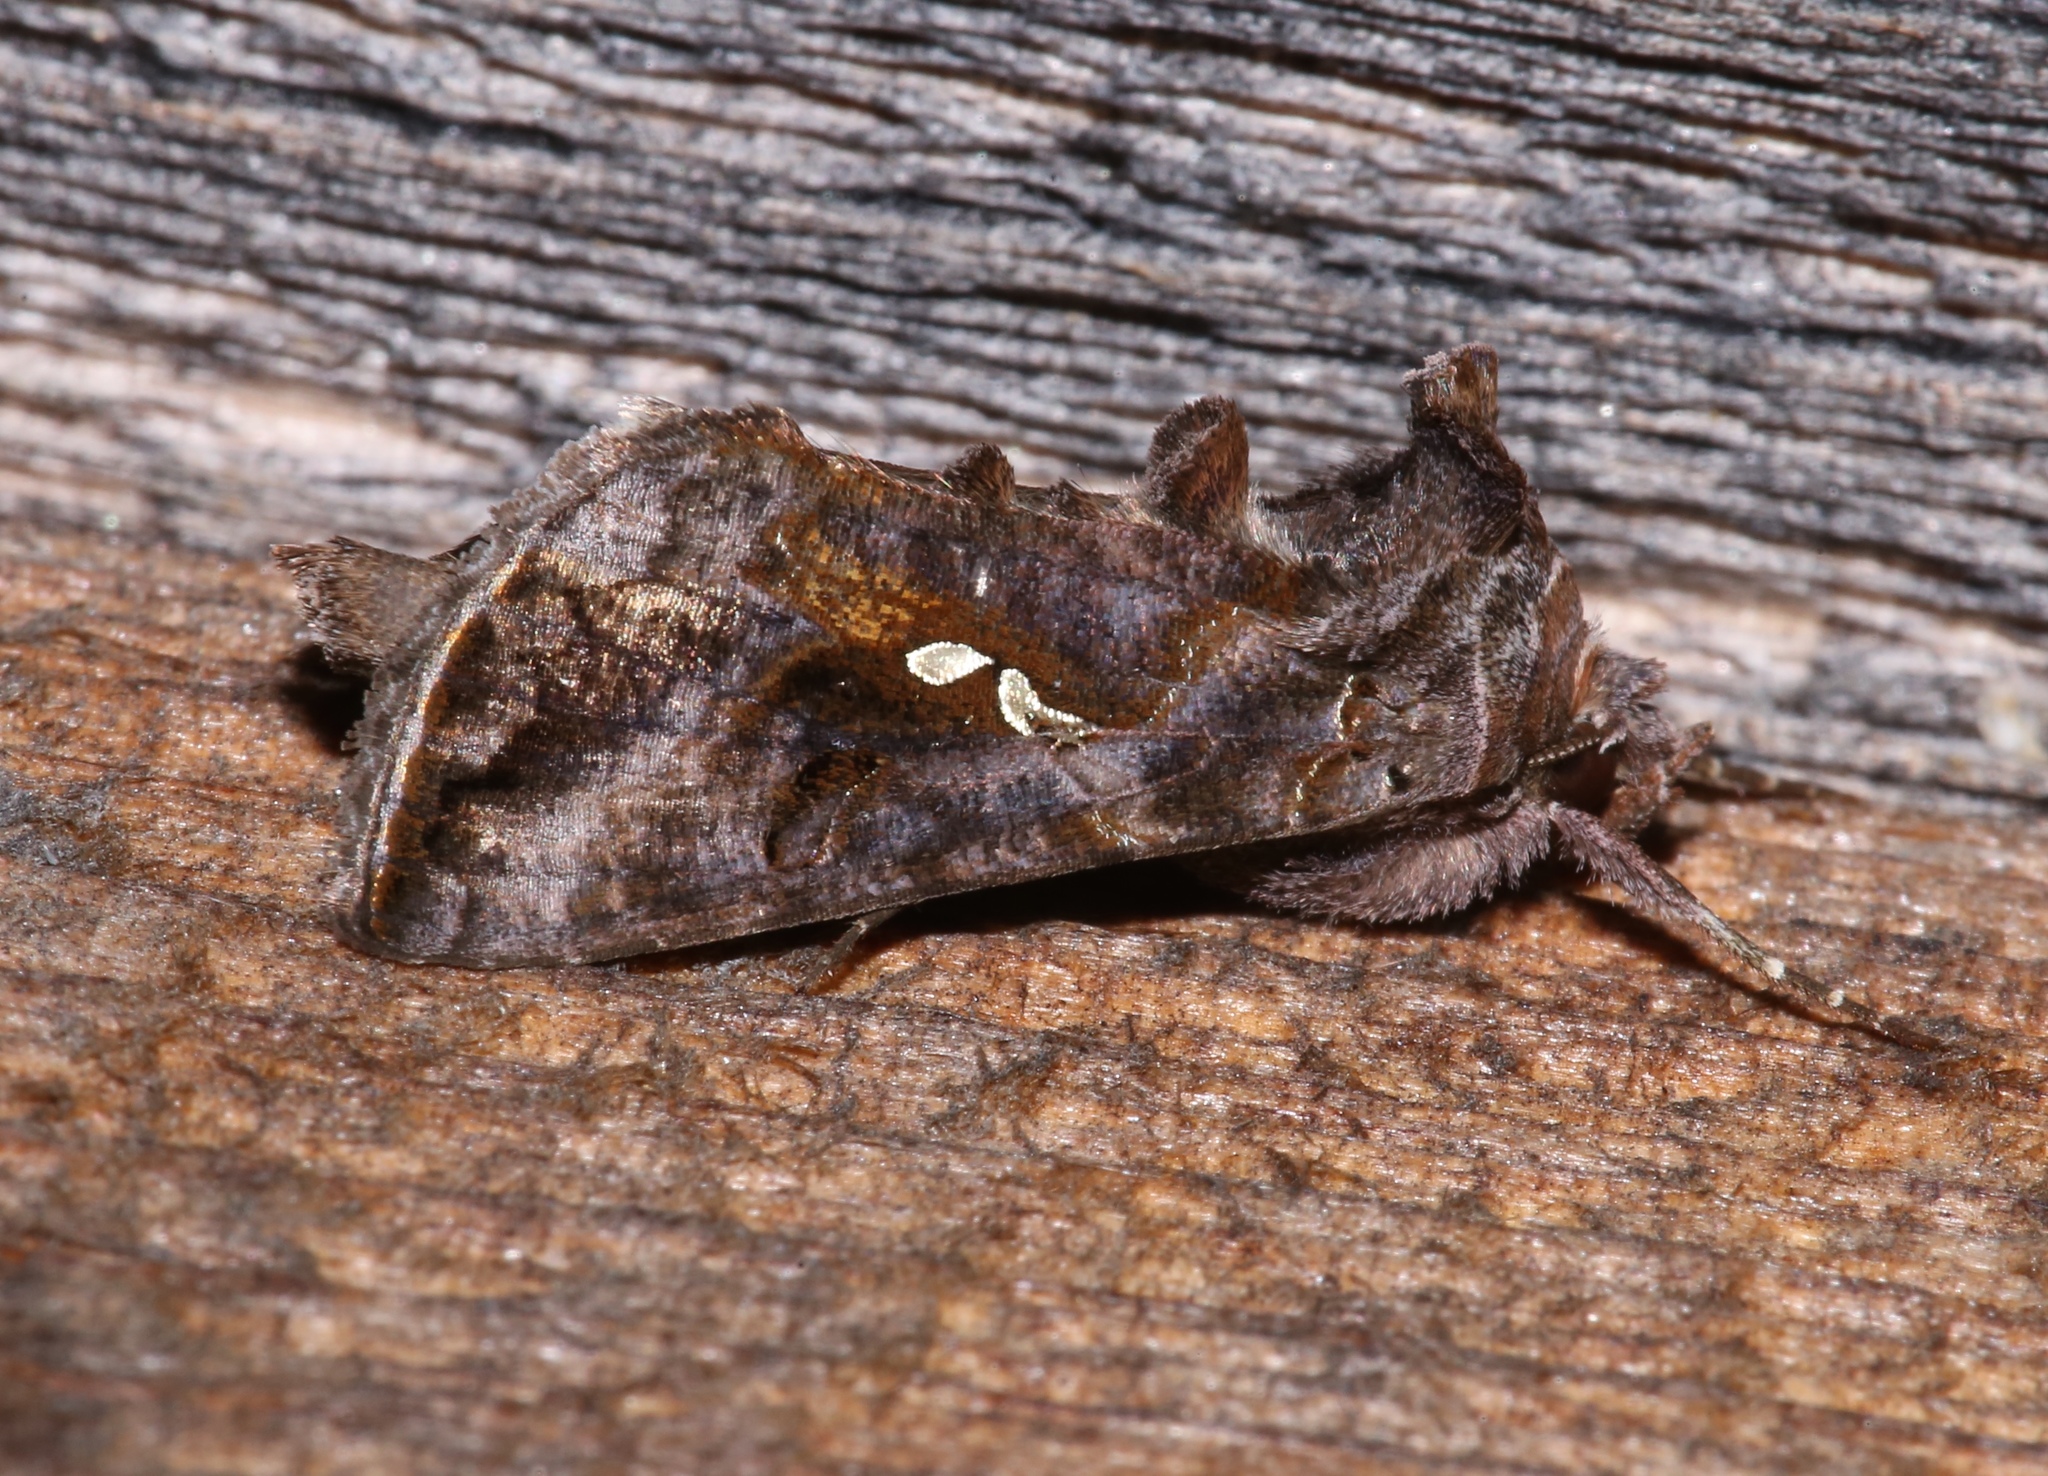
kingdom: Animalia
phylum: Arthropoda
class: Insecta
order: Lepidoptera
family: Noctuidae
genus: Autographa
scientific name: Autographa precationis
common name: Common looper moth
